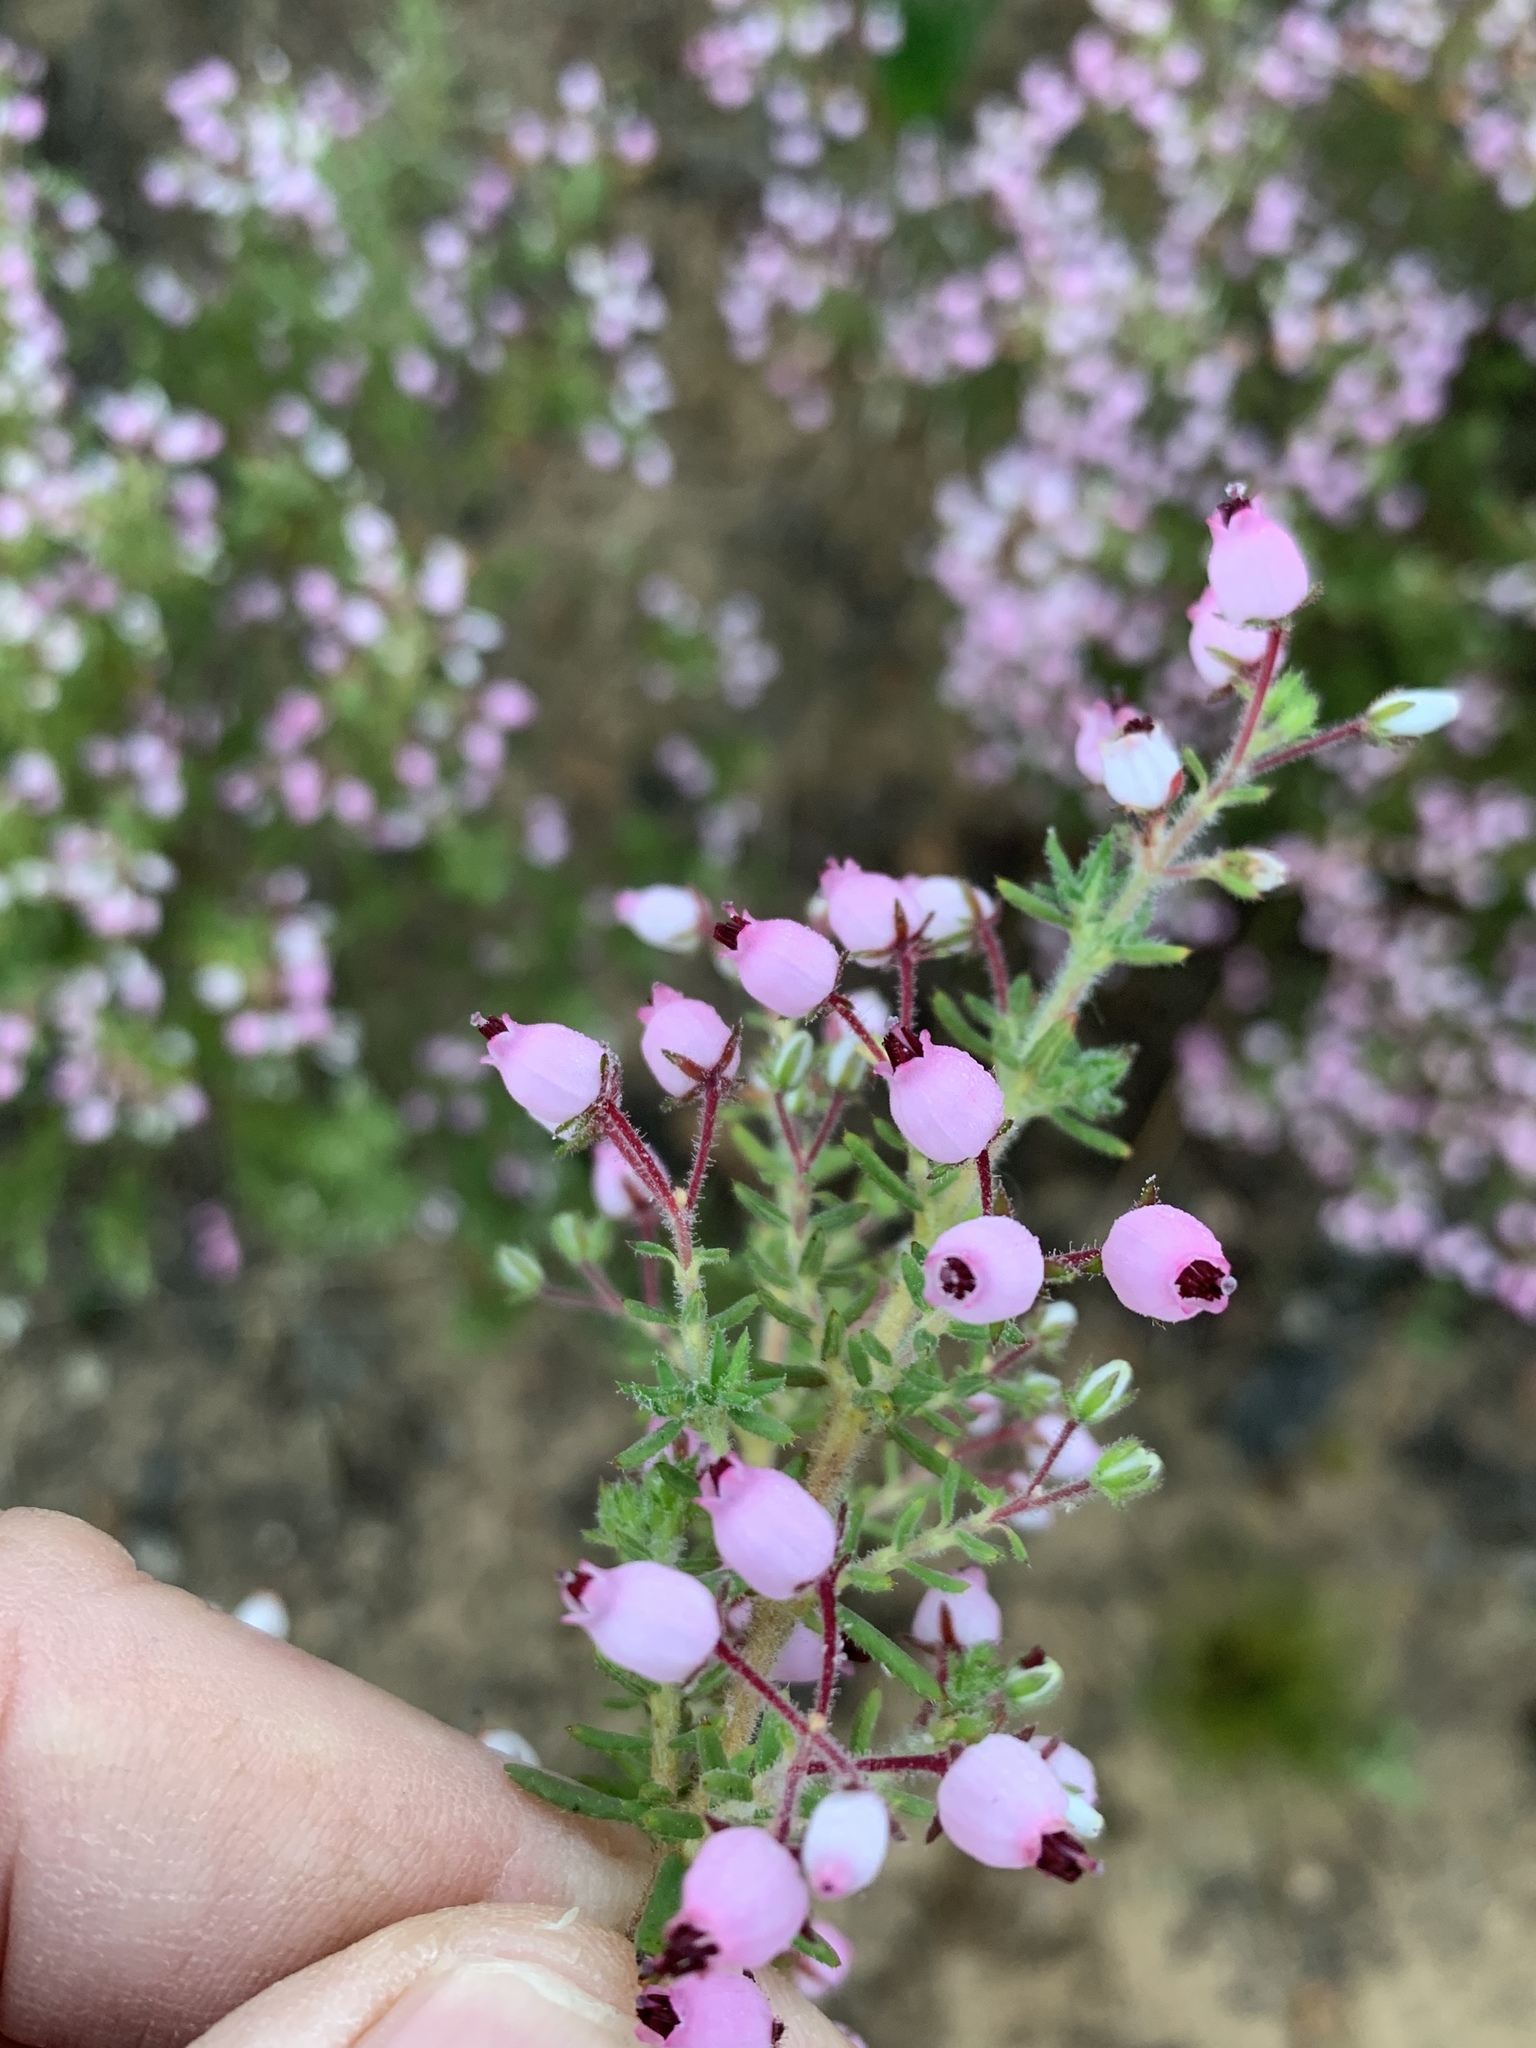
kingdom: Plantae
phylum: Tracheophyta
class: Magnoliopsida
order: Ericales
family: Ericaceae
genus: Erica
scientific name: Erica hirta
